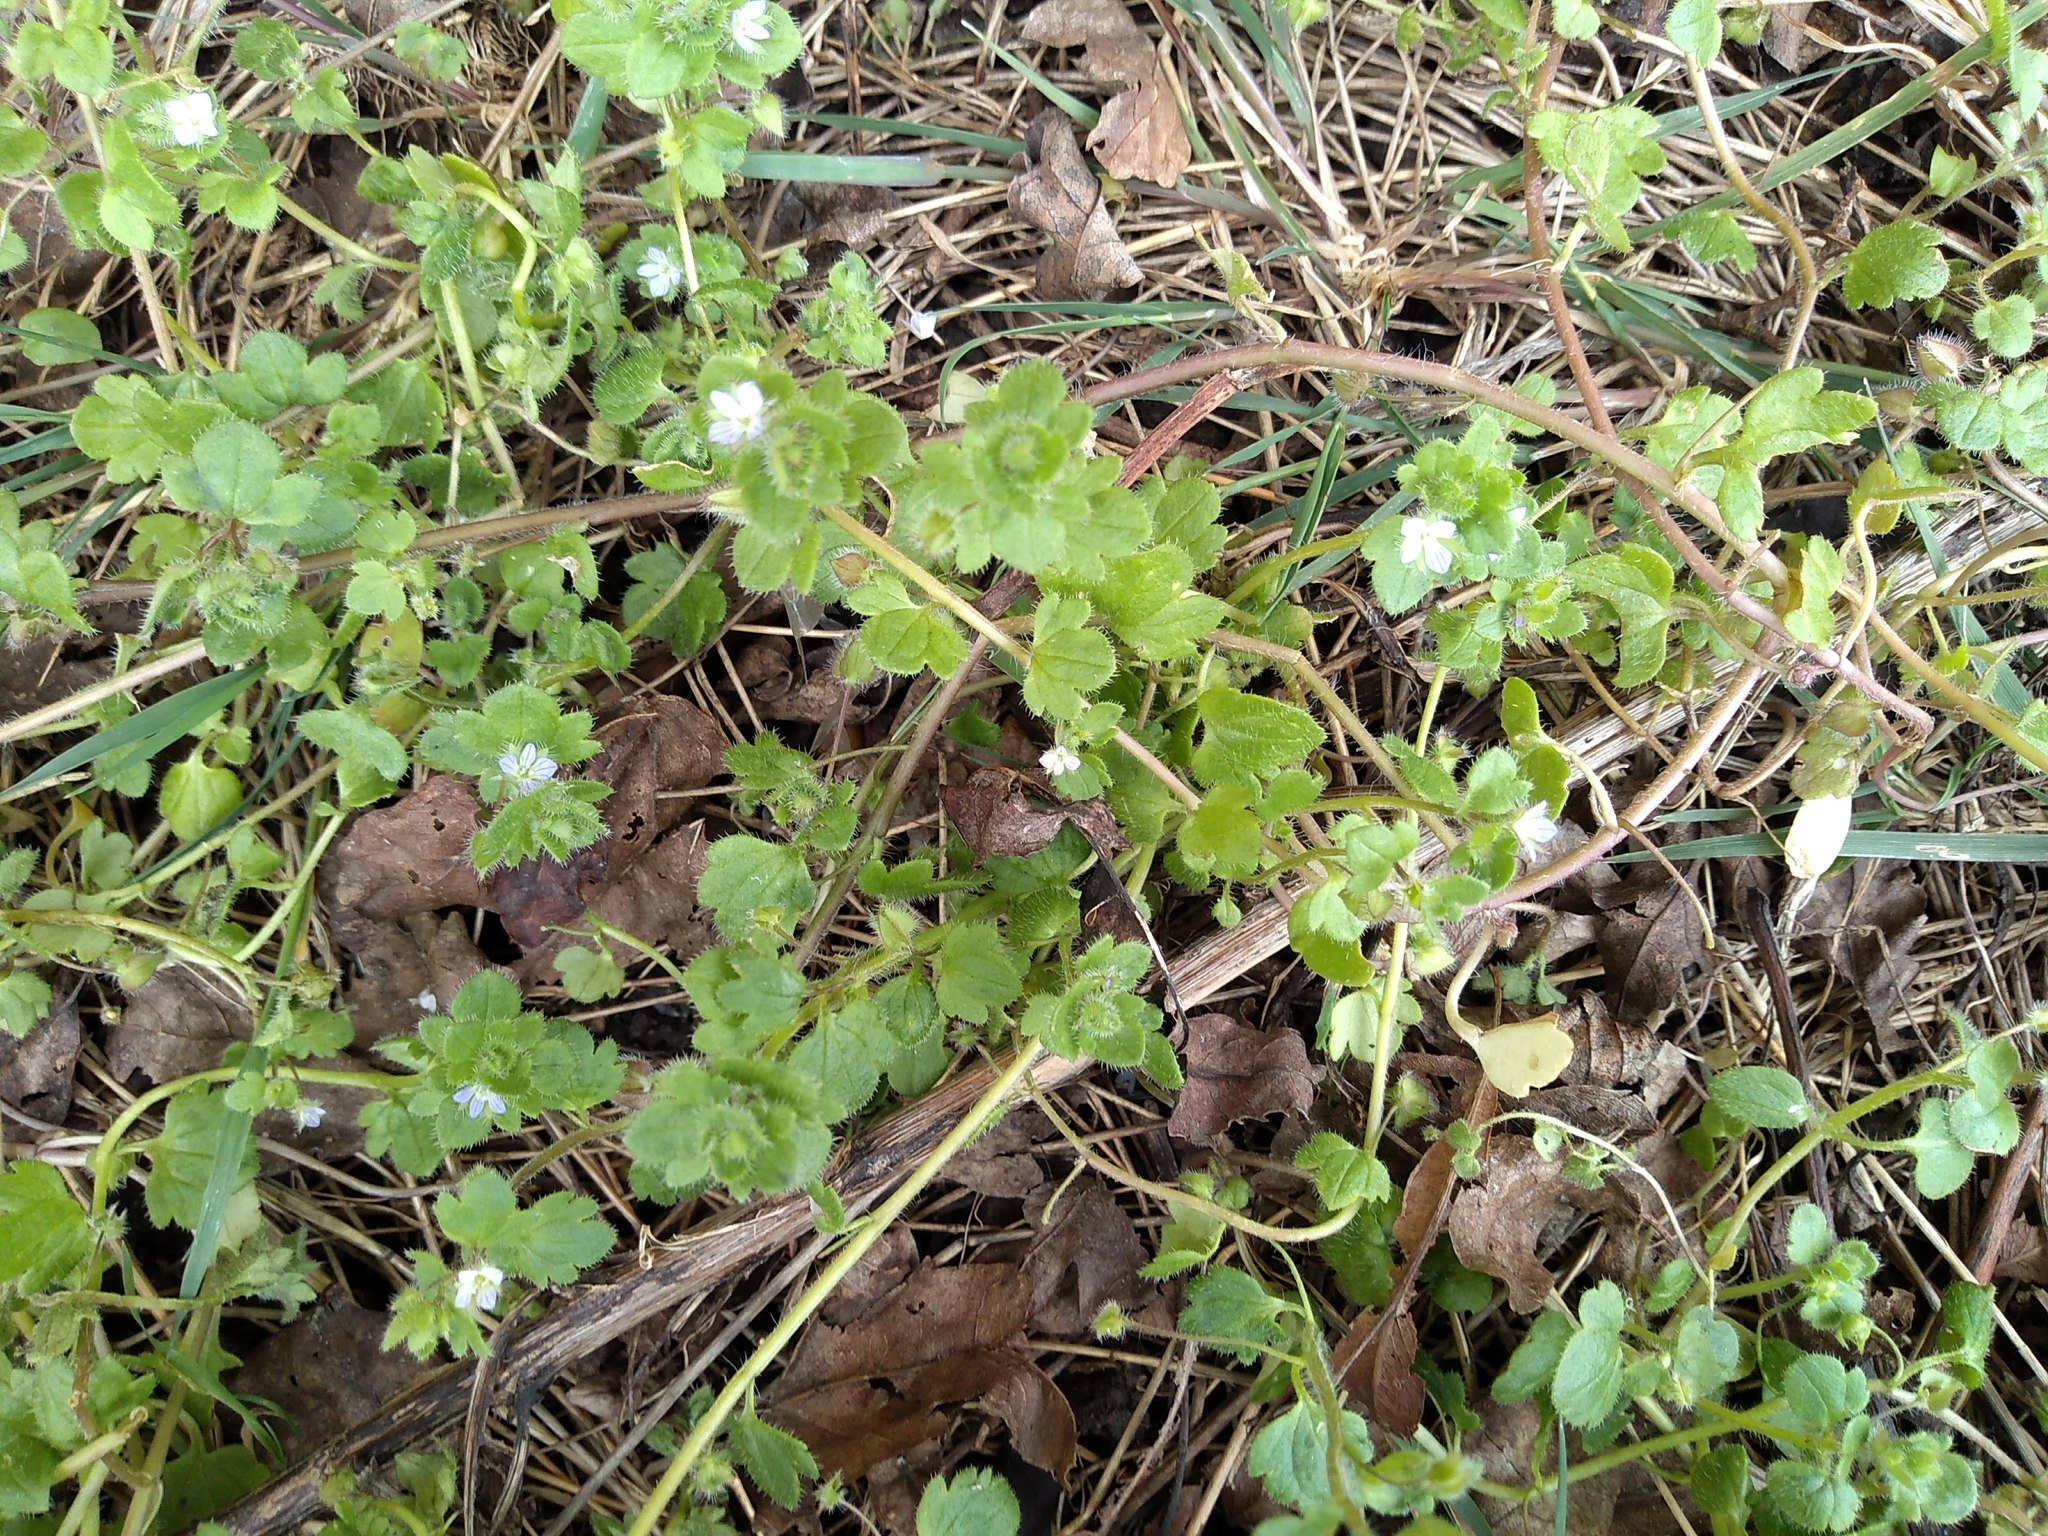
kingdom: Plantae
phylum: Tracheophyta
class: Magnoliopsida
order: Lamiales
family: Plantaginaceae
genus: Veronica
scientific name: Veronica sublobata
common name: False ivy-leaved speedwell
